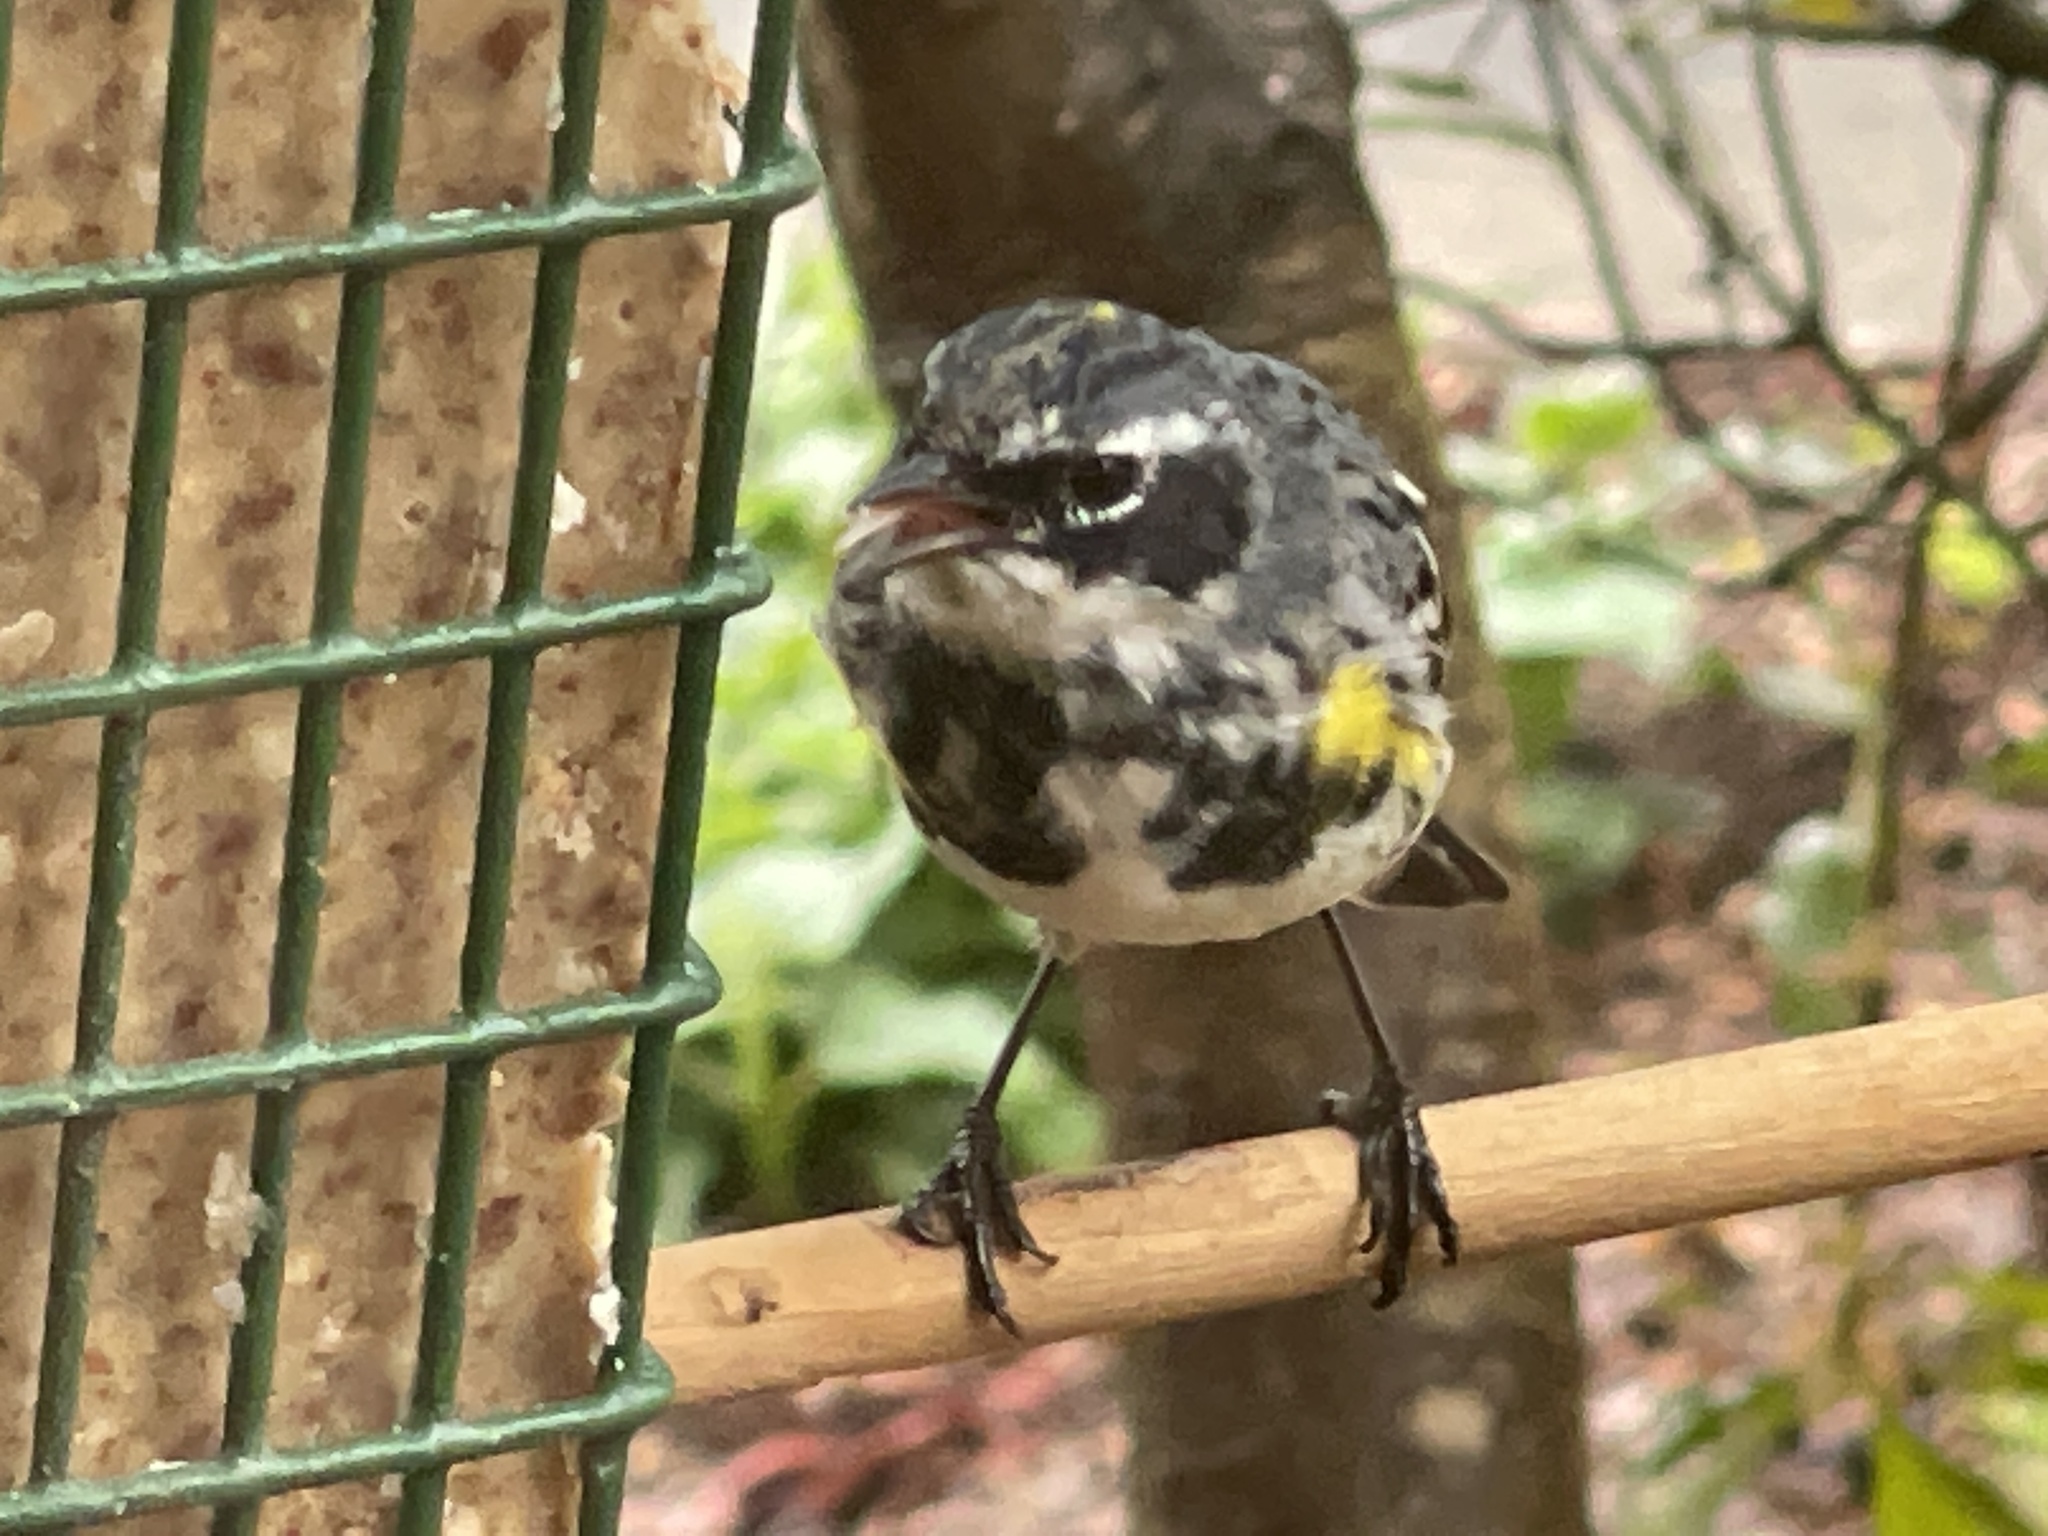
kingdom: Animalia
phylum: Chordata
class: Aves
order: Passeriformes
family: Parulidae
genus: Setophaga
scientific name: Setophaga coronata
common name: Myrtle warbler
